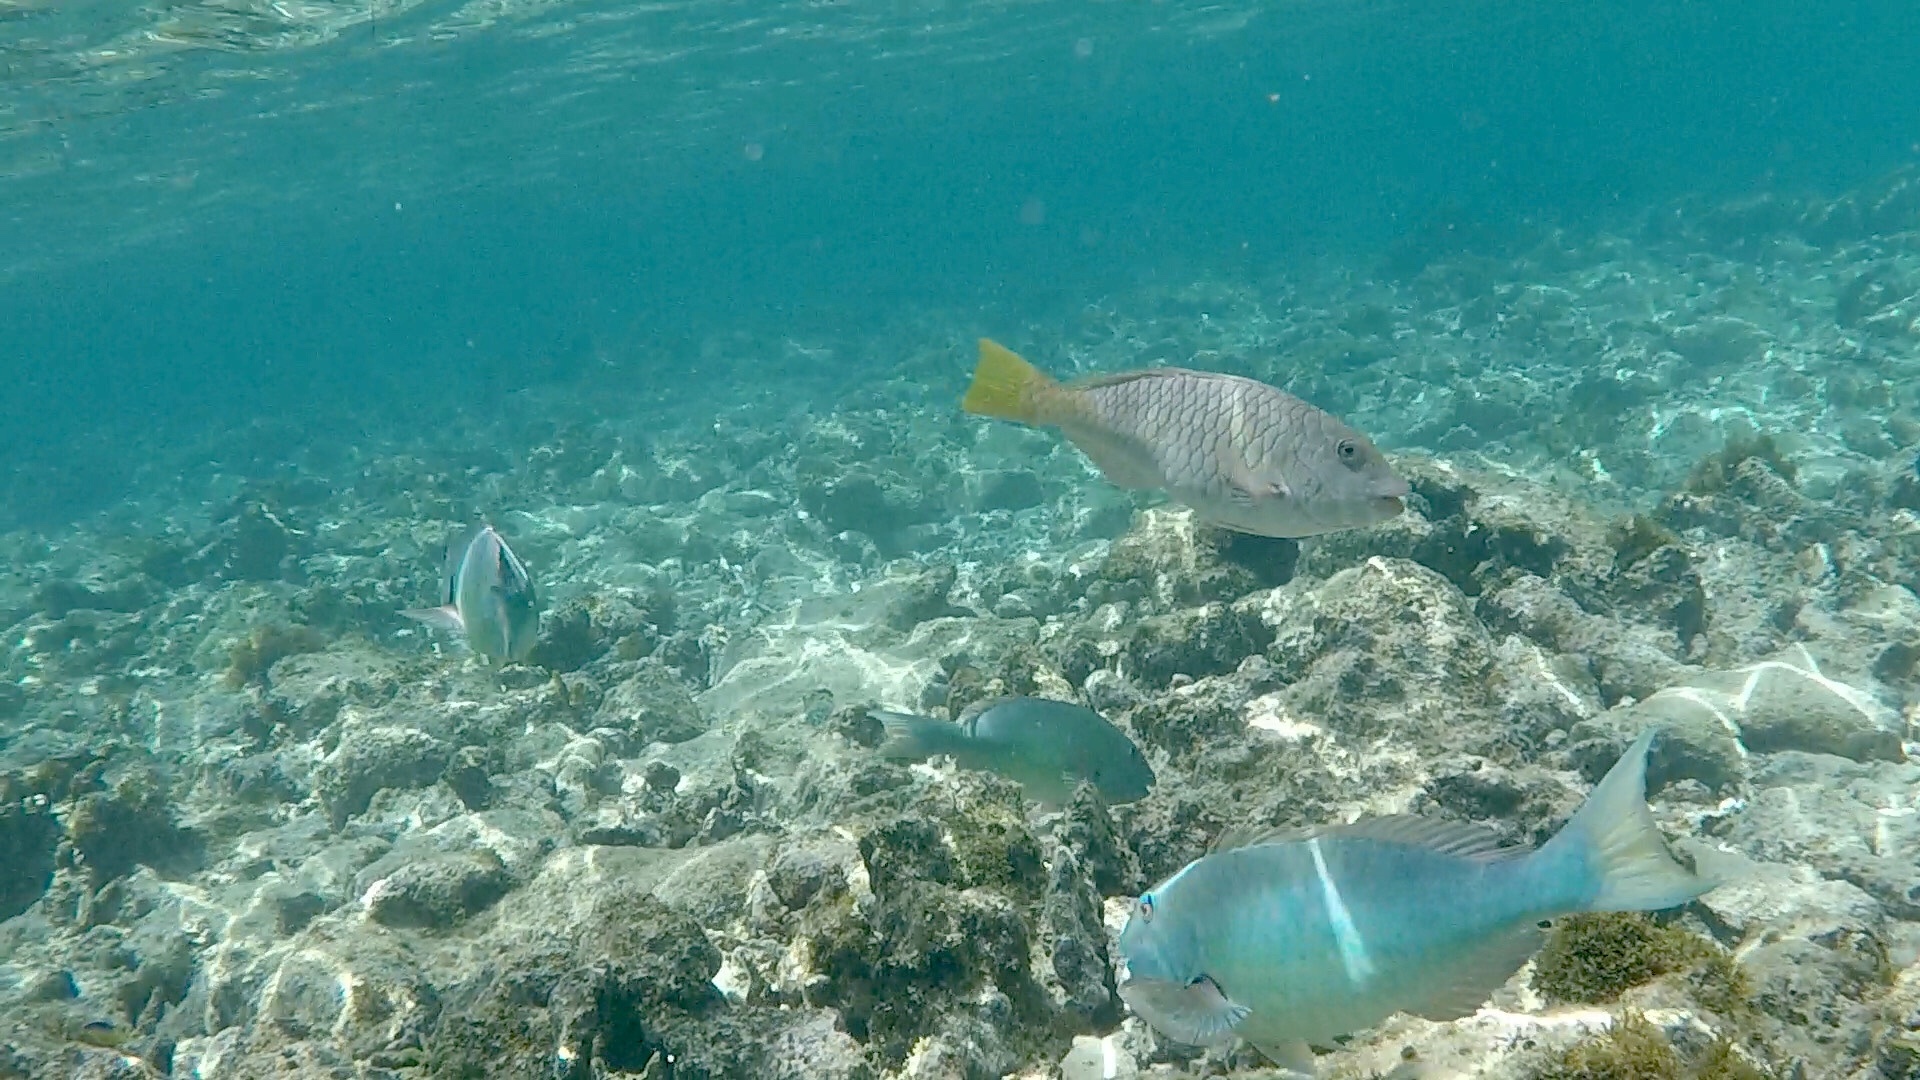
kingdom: Animalia
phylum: Chordata
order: Perciformes
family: Scaridae
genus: Sparisoma
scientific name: Sparisoma rubripinne
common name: Redfin parrotfish
